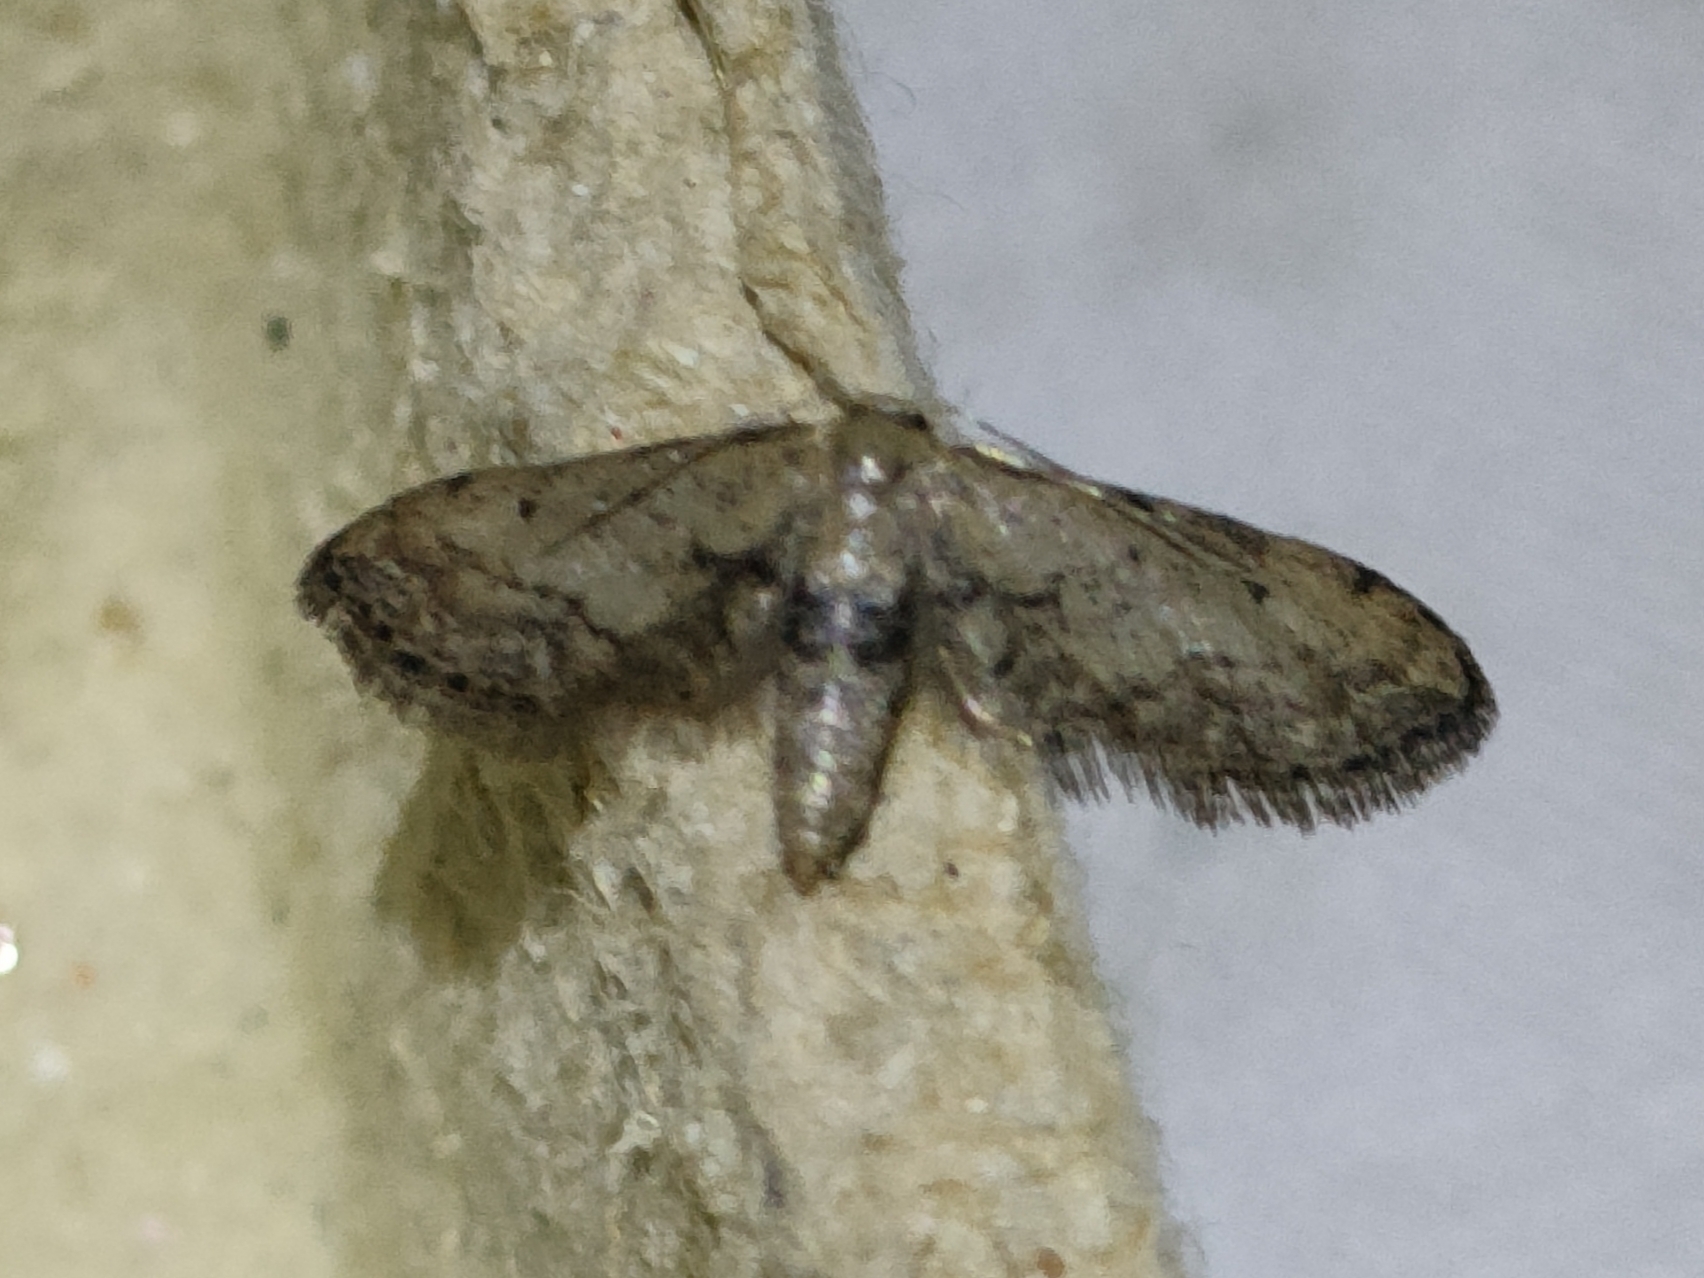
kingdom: Animalia
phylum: Arthropoda
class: Insecta
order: Lepidoptera
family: Geometridae
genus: Idaea
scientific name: Idaea attenuaria
